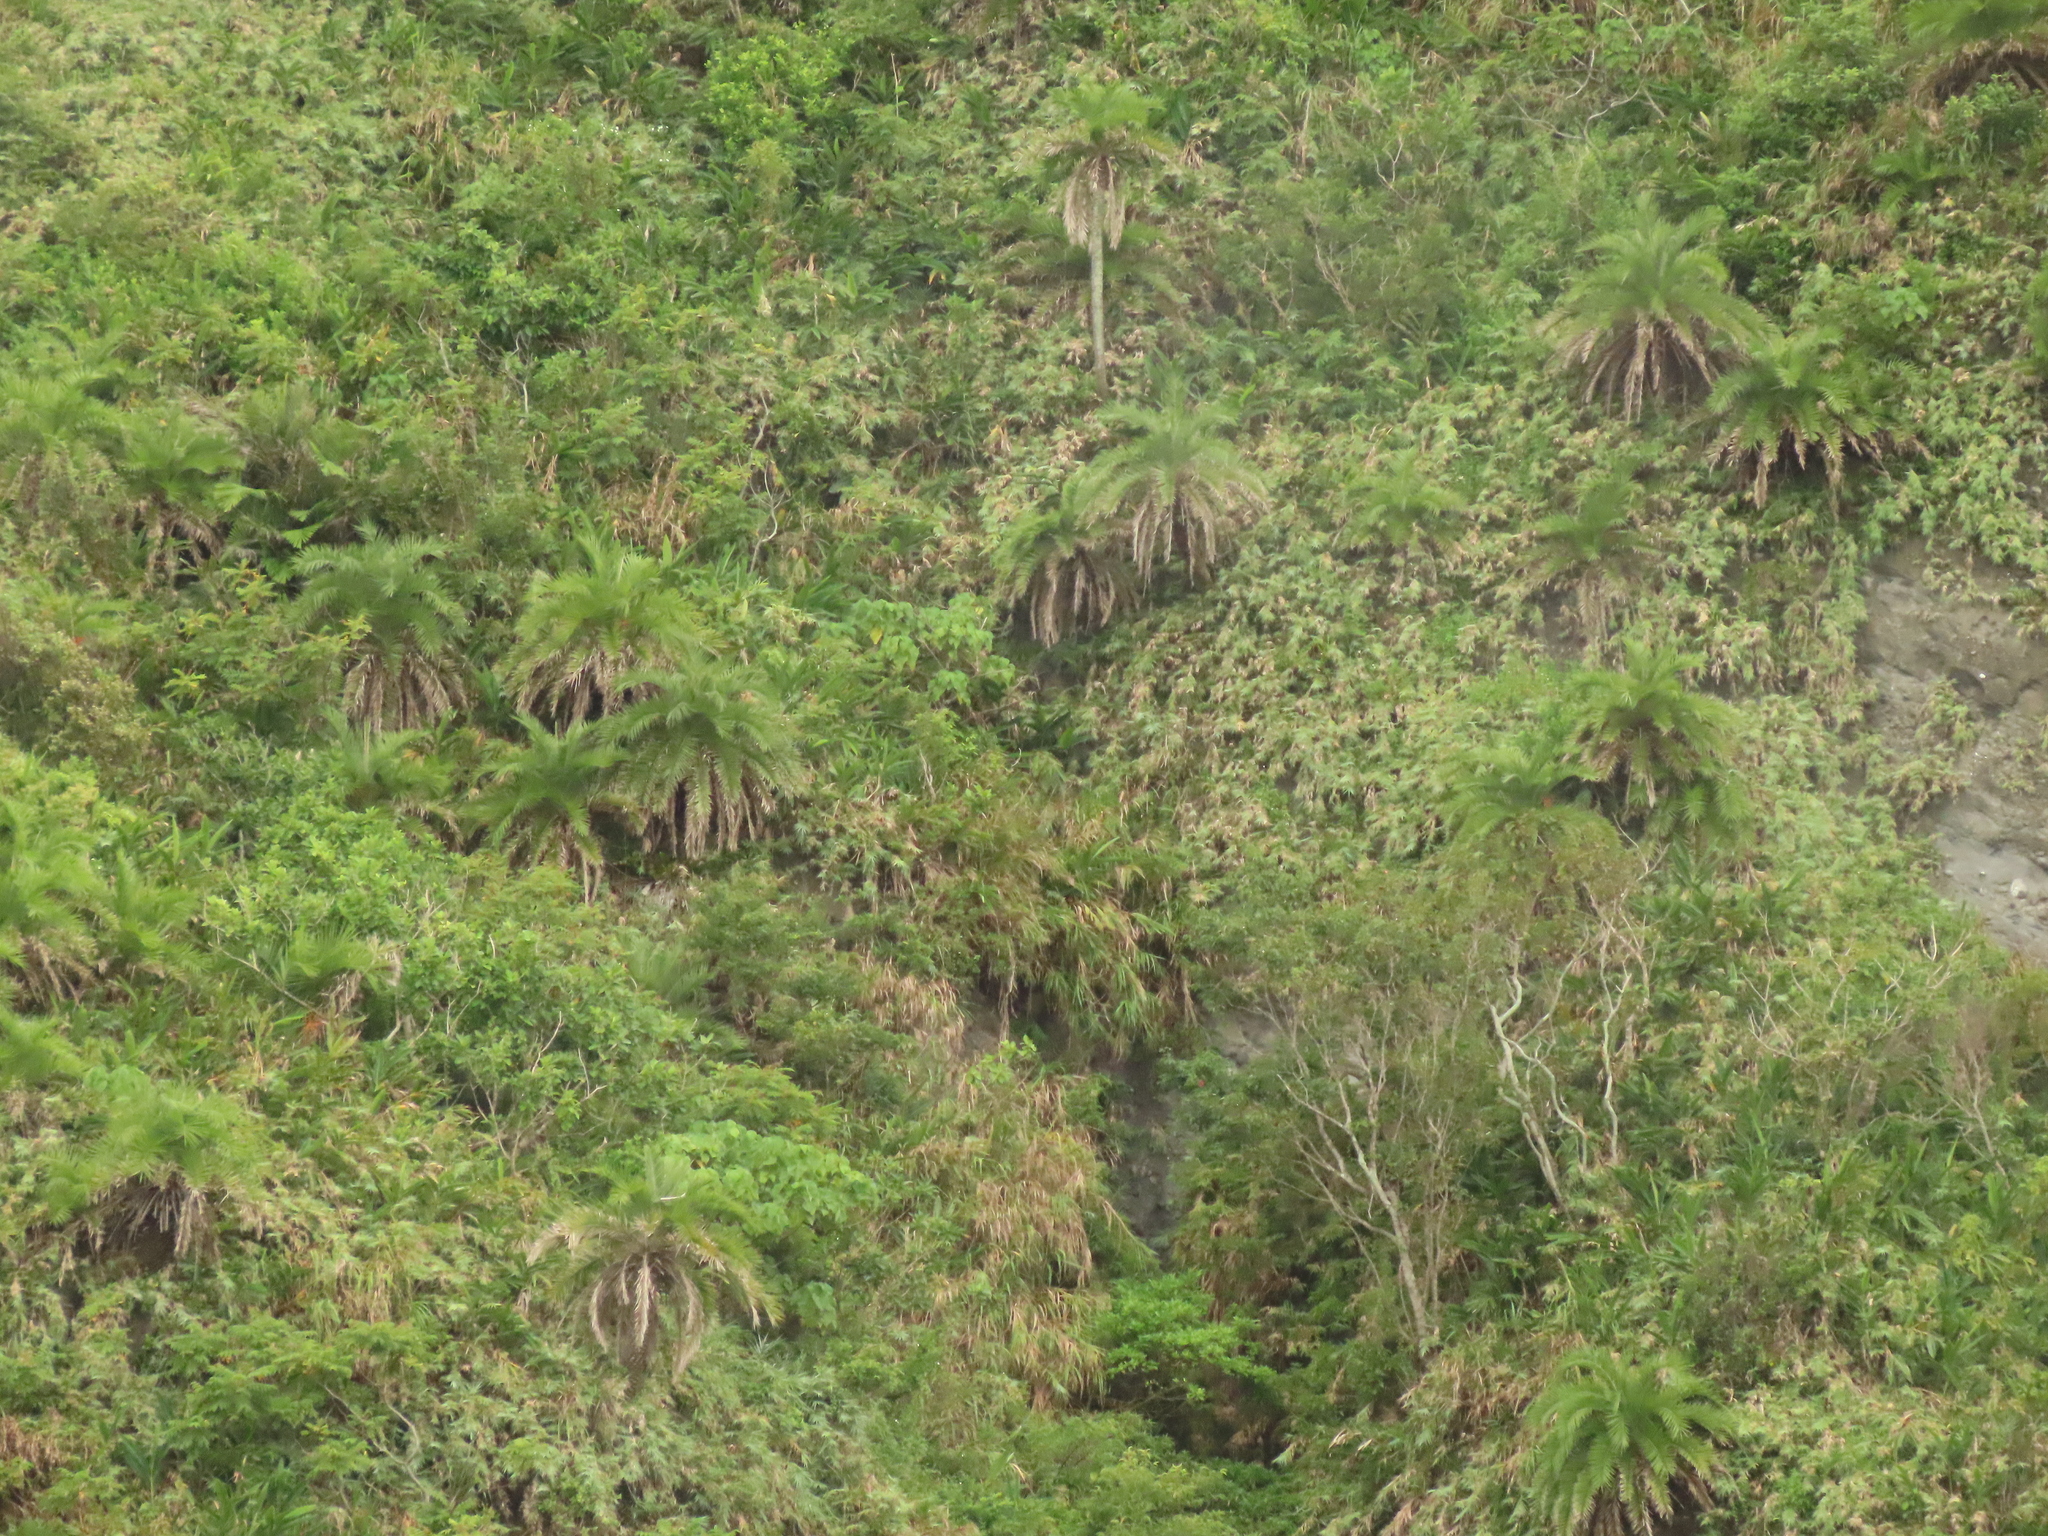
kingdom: Plantae
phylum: Tracheophyta
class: Liliopsida
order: Arecales
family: Arecaceae
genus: Phoenix
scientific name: Phoenix loureiroi
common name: Loureiro's palm
